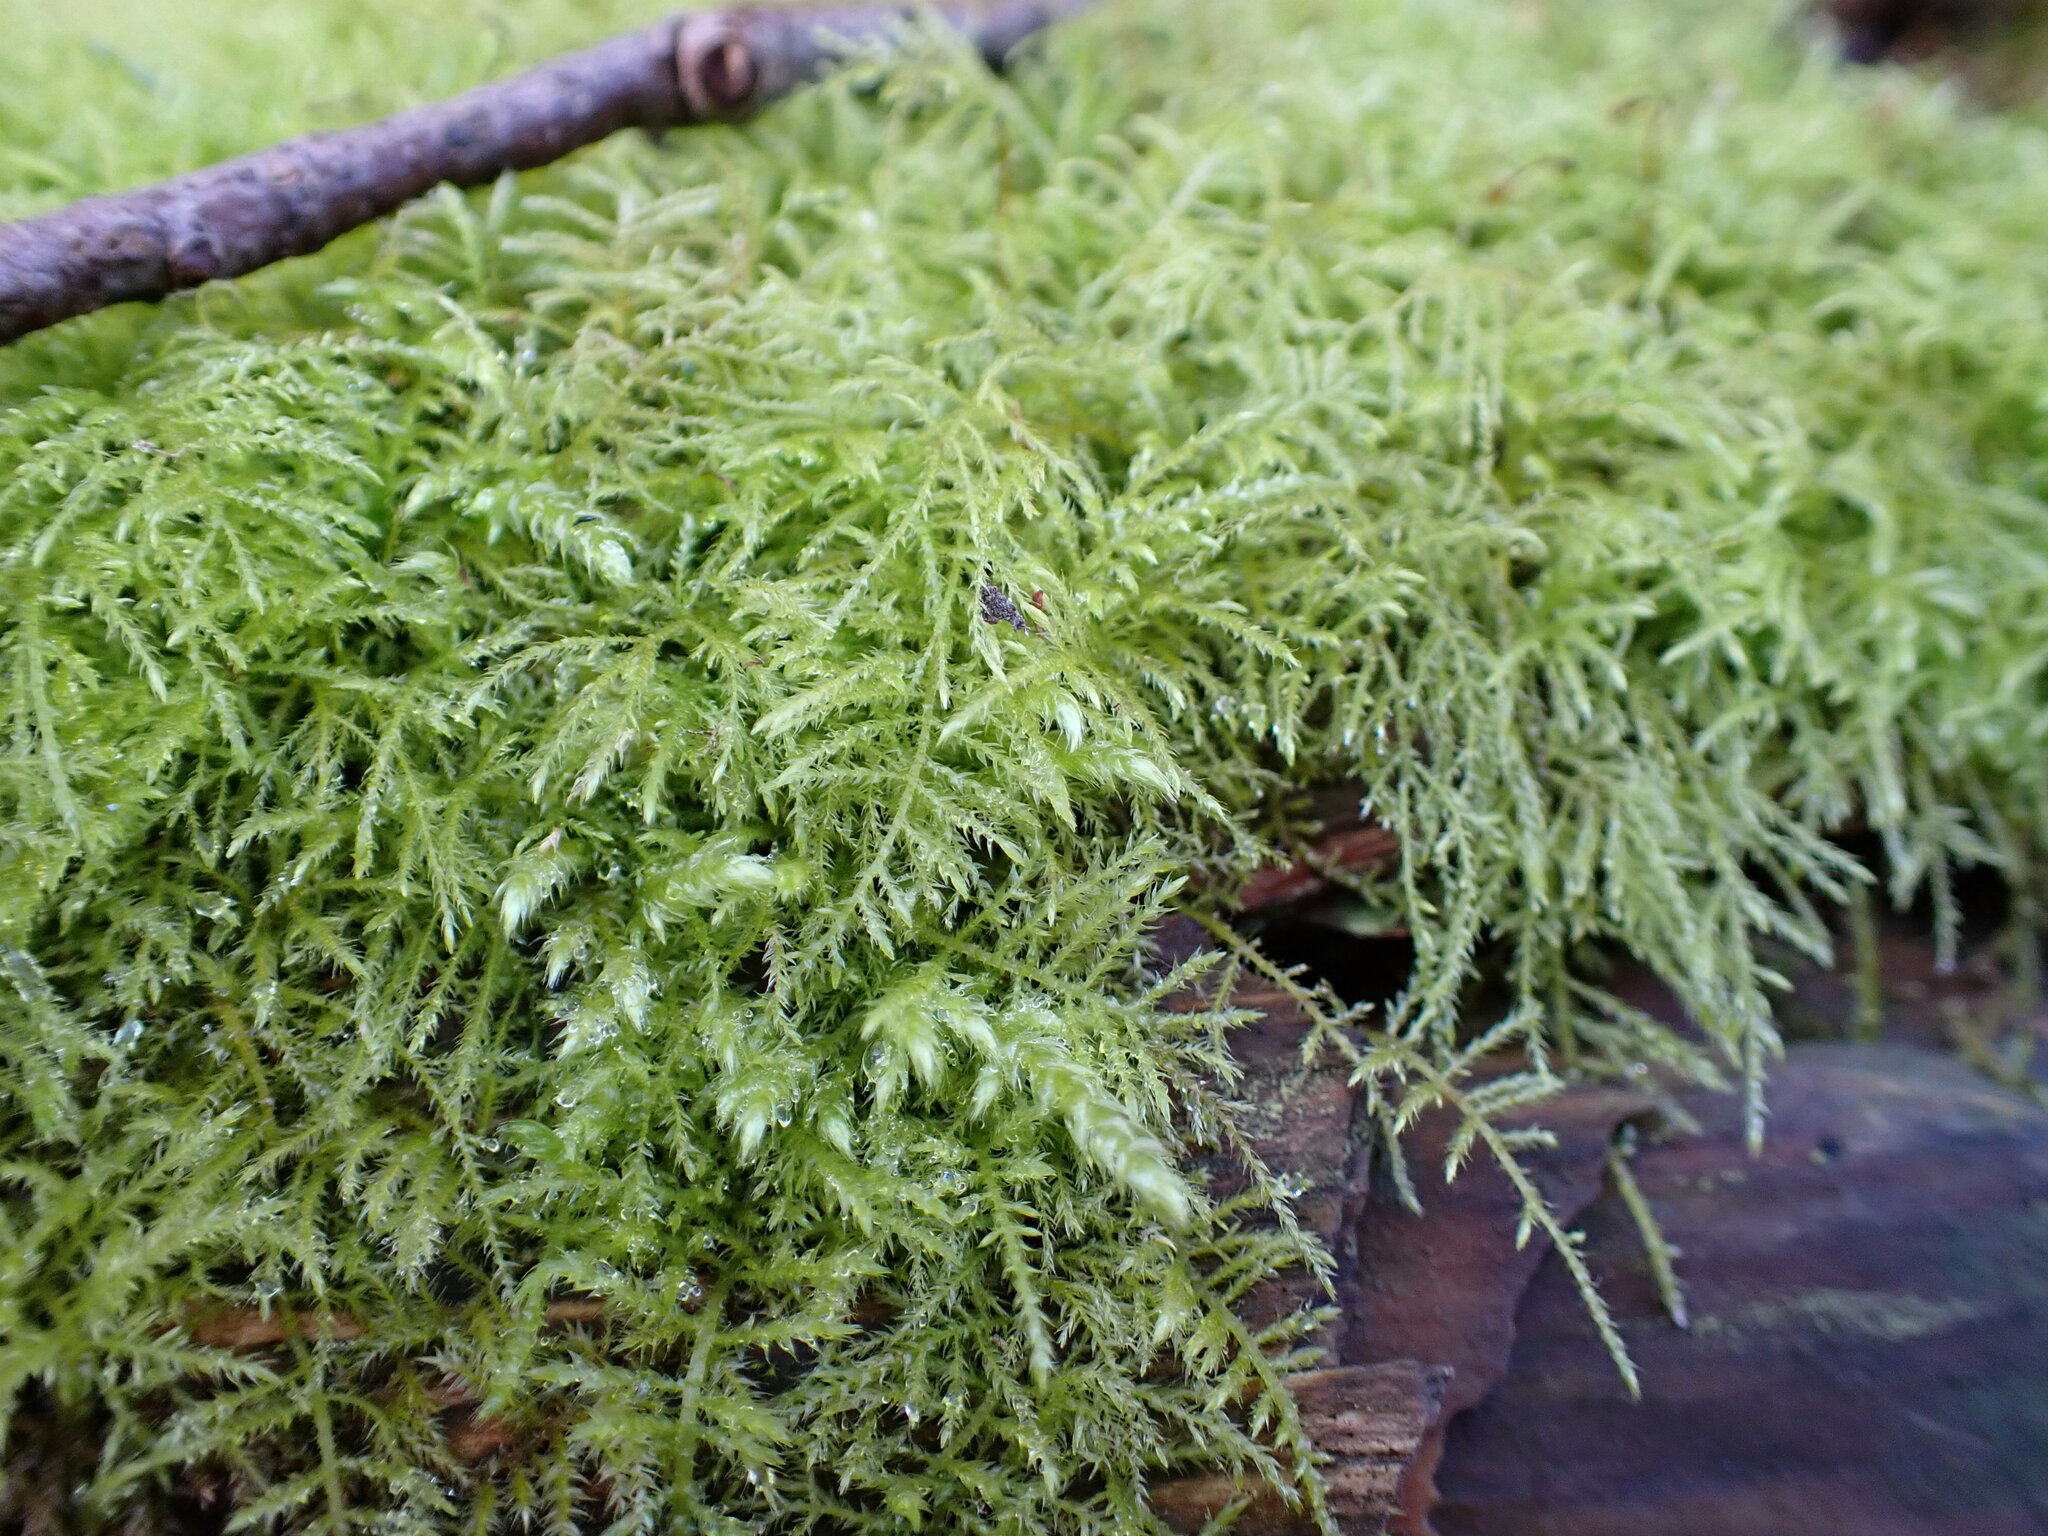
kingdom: Plantae
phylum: Bryophyta
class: Bryopsida
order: Hypnales
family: Brachytheciaceae
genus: Kindbergia
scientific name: Kindbergia praelonga
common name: Slender beaked moss
